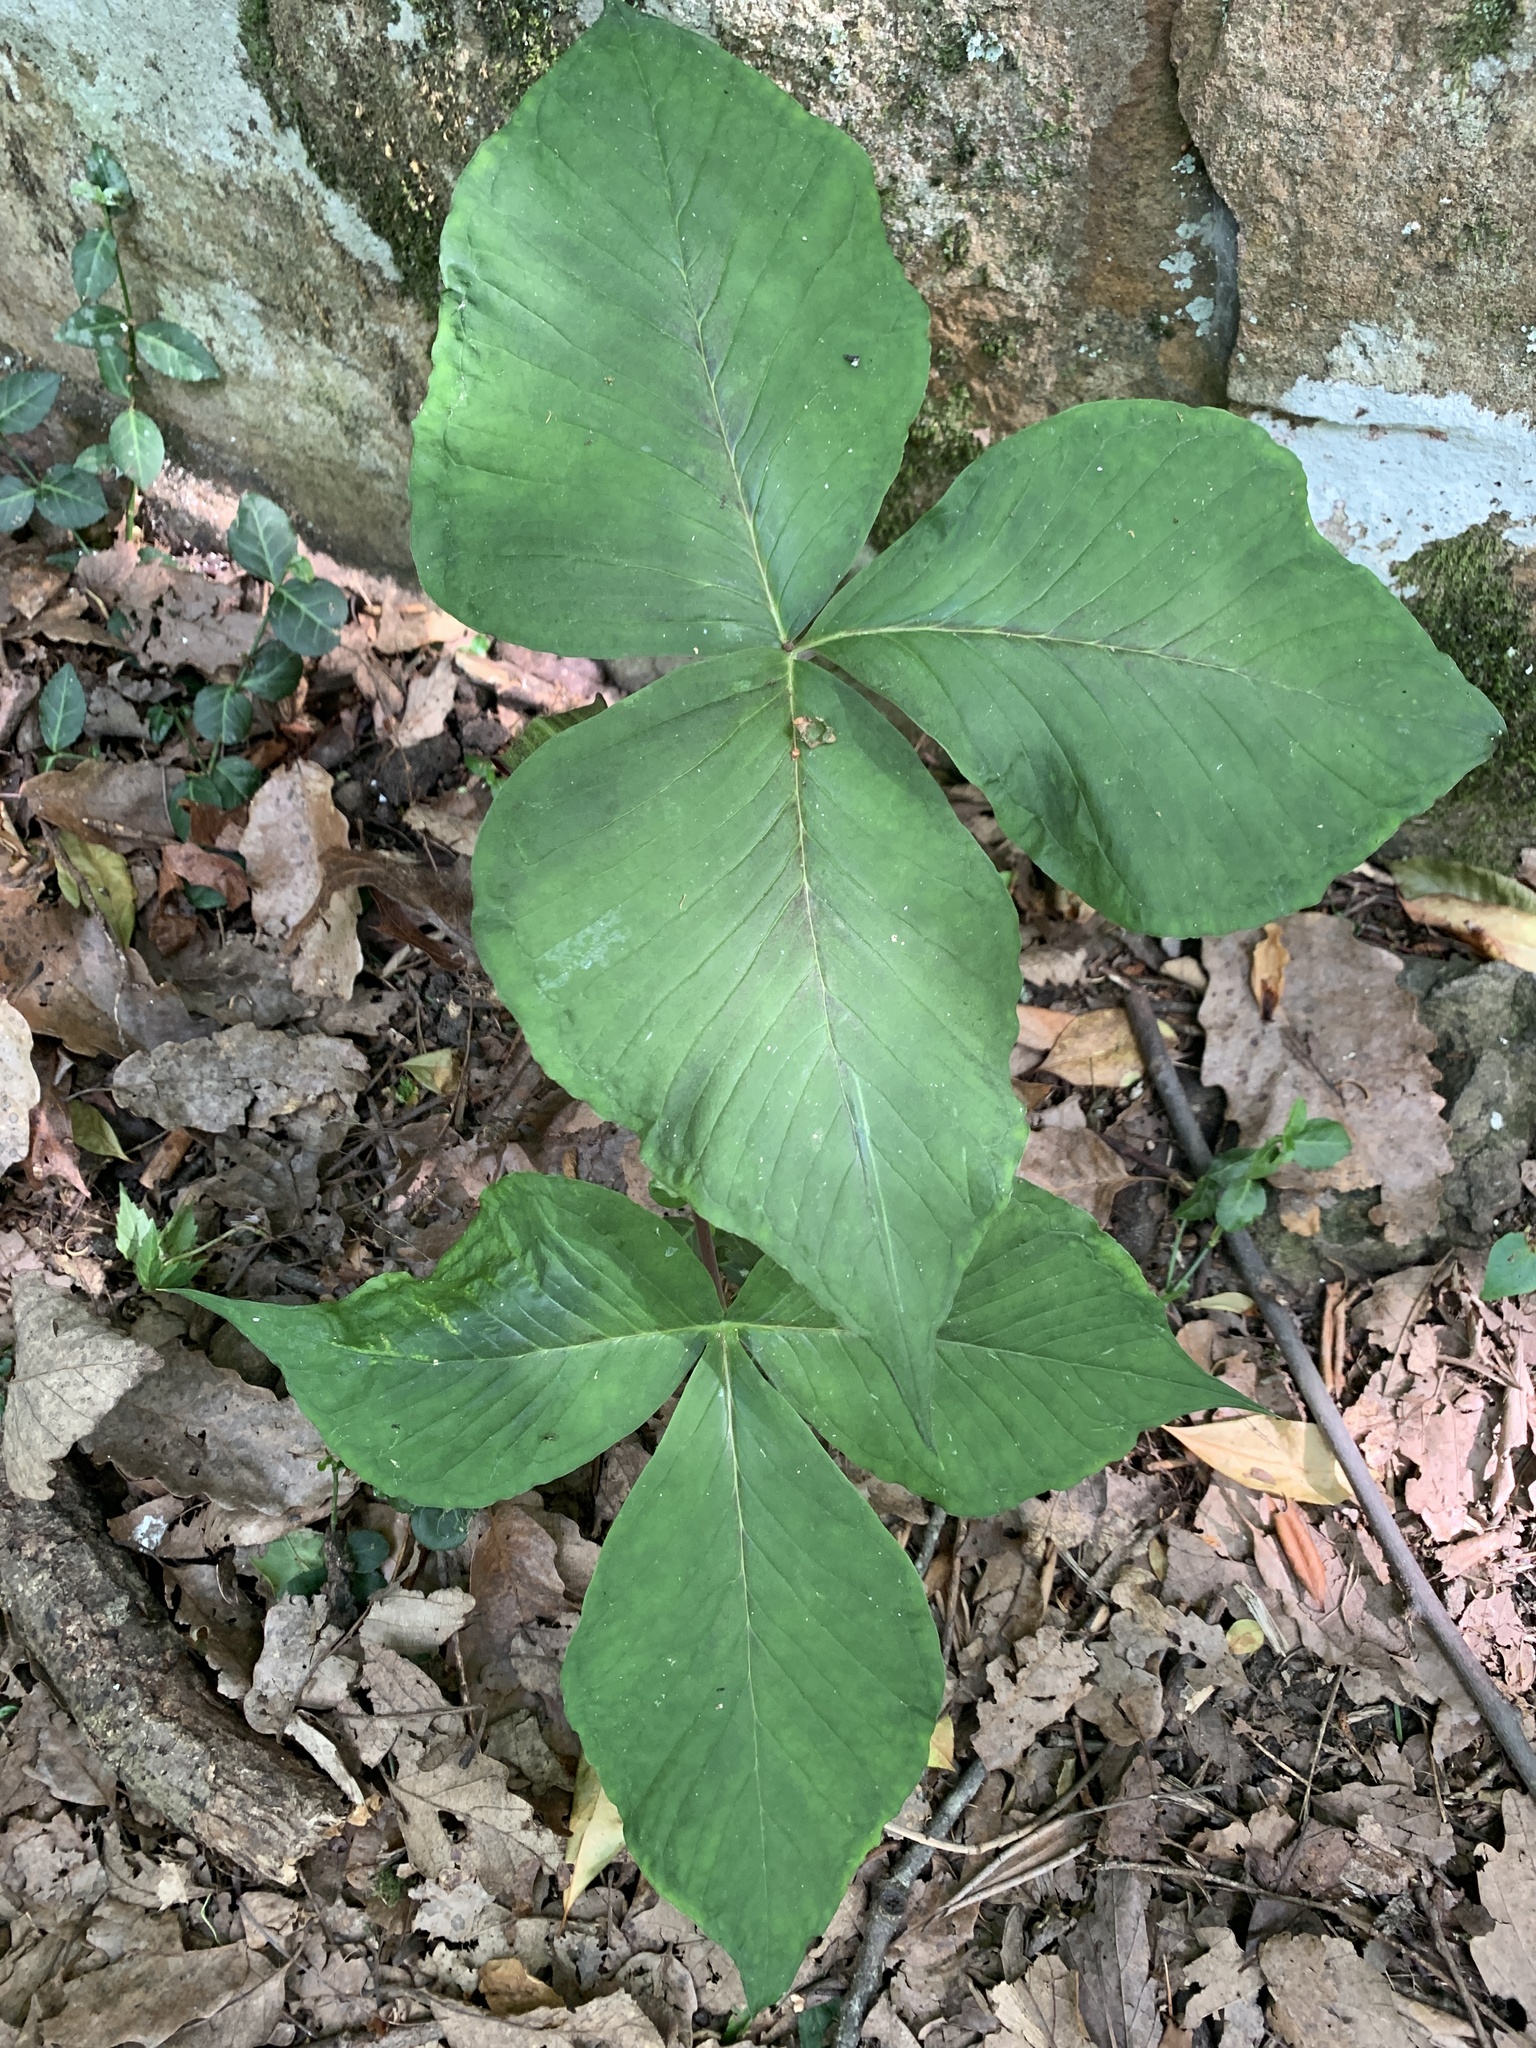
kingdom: Plantae
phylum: Tracheophyta
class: Liliopsida
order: Alismatales
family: Araceae
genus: Arisaema
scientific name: Arisaema triphyllum
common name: Jack-in-the-pulpit
